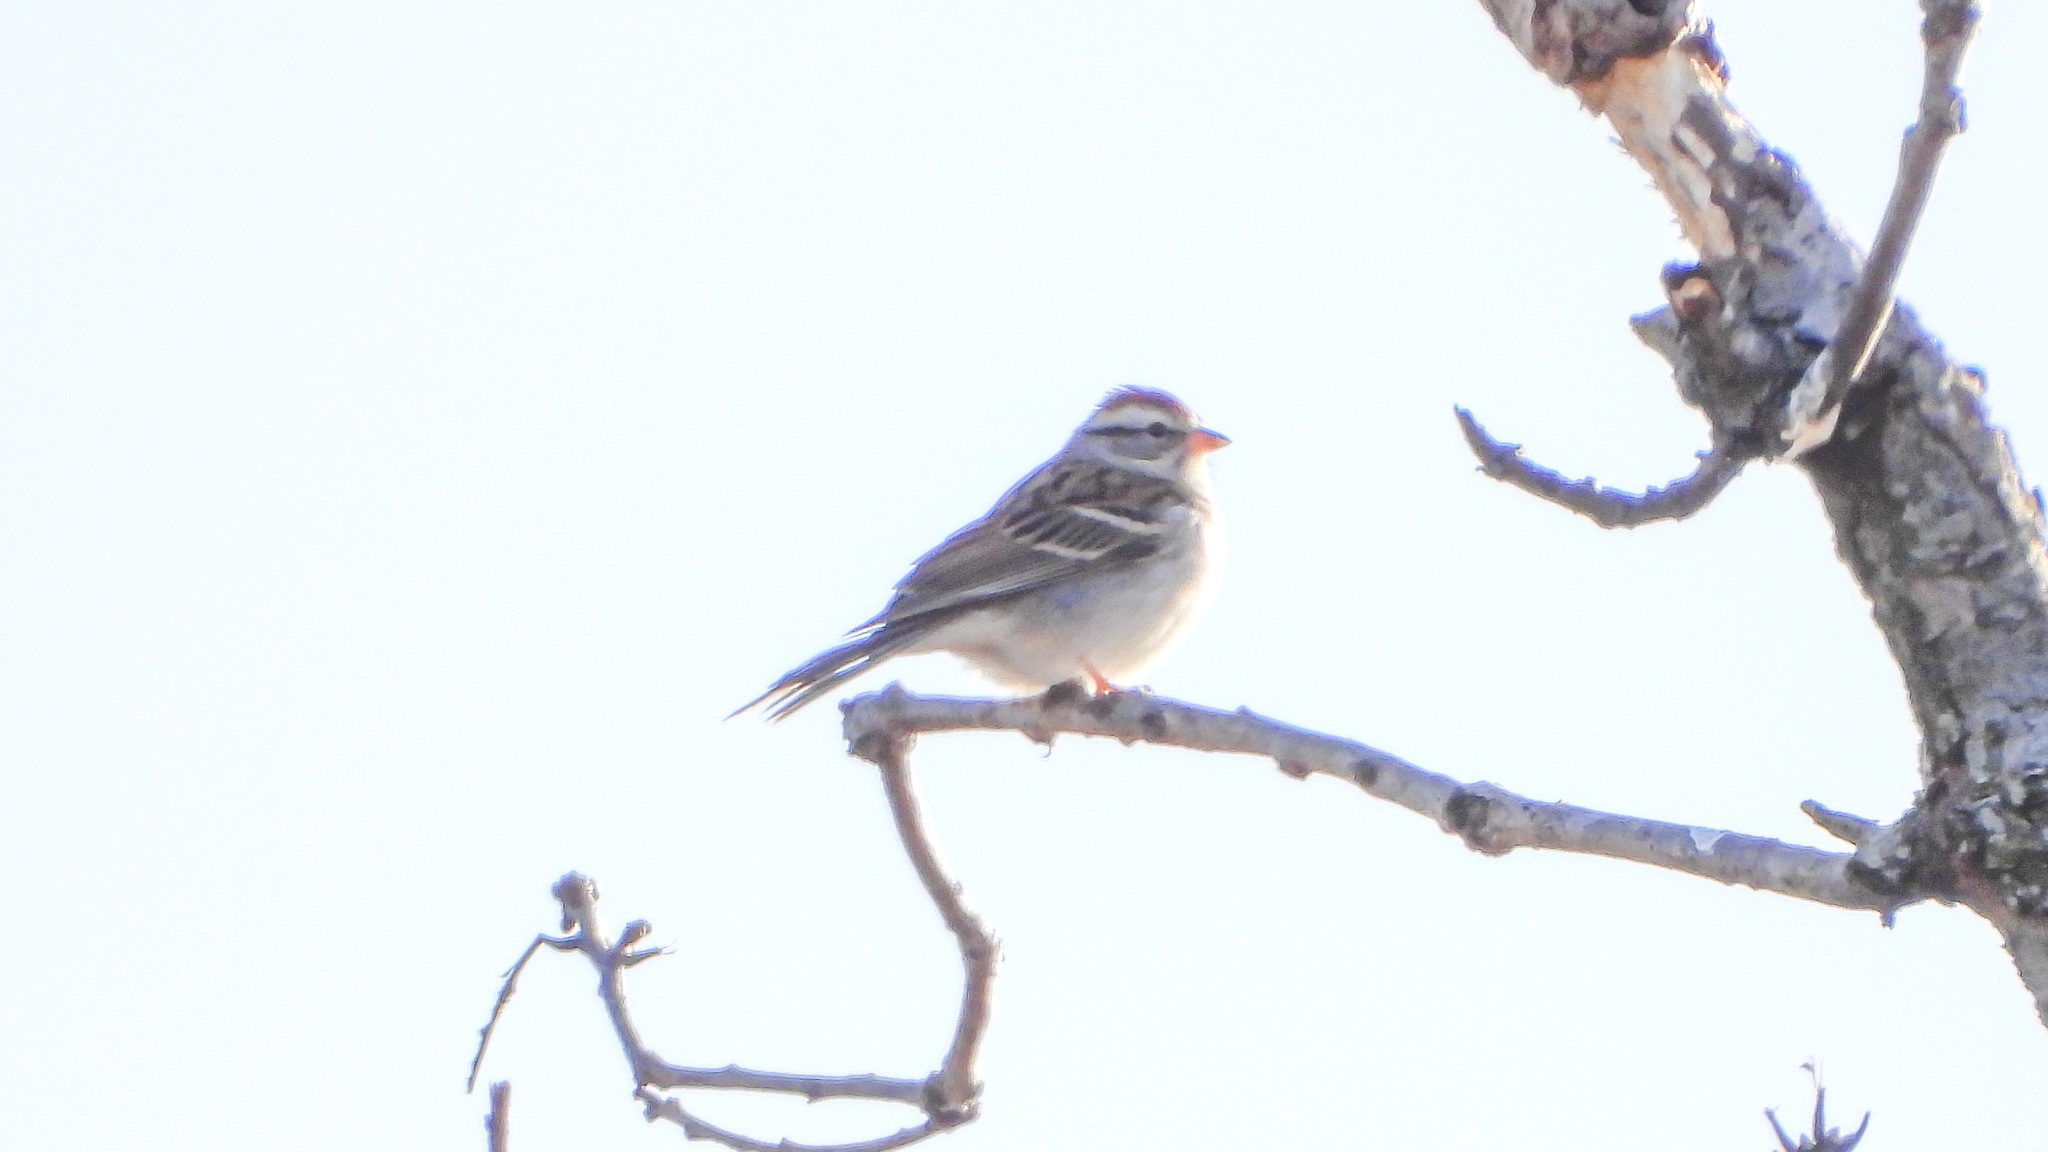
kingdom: Animalia
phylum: Chordata
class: Aves
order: Passeriformes
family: Passerellidae
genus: Spizella
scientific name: Spizella passerina
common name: Chipping sparrow
